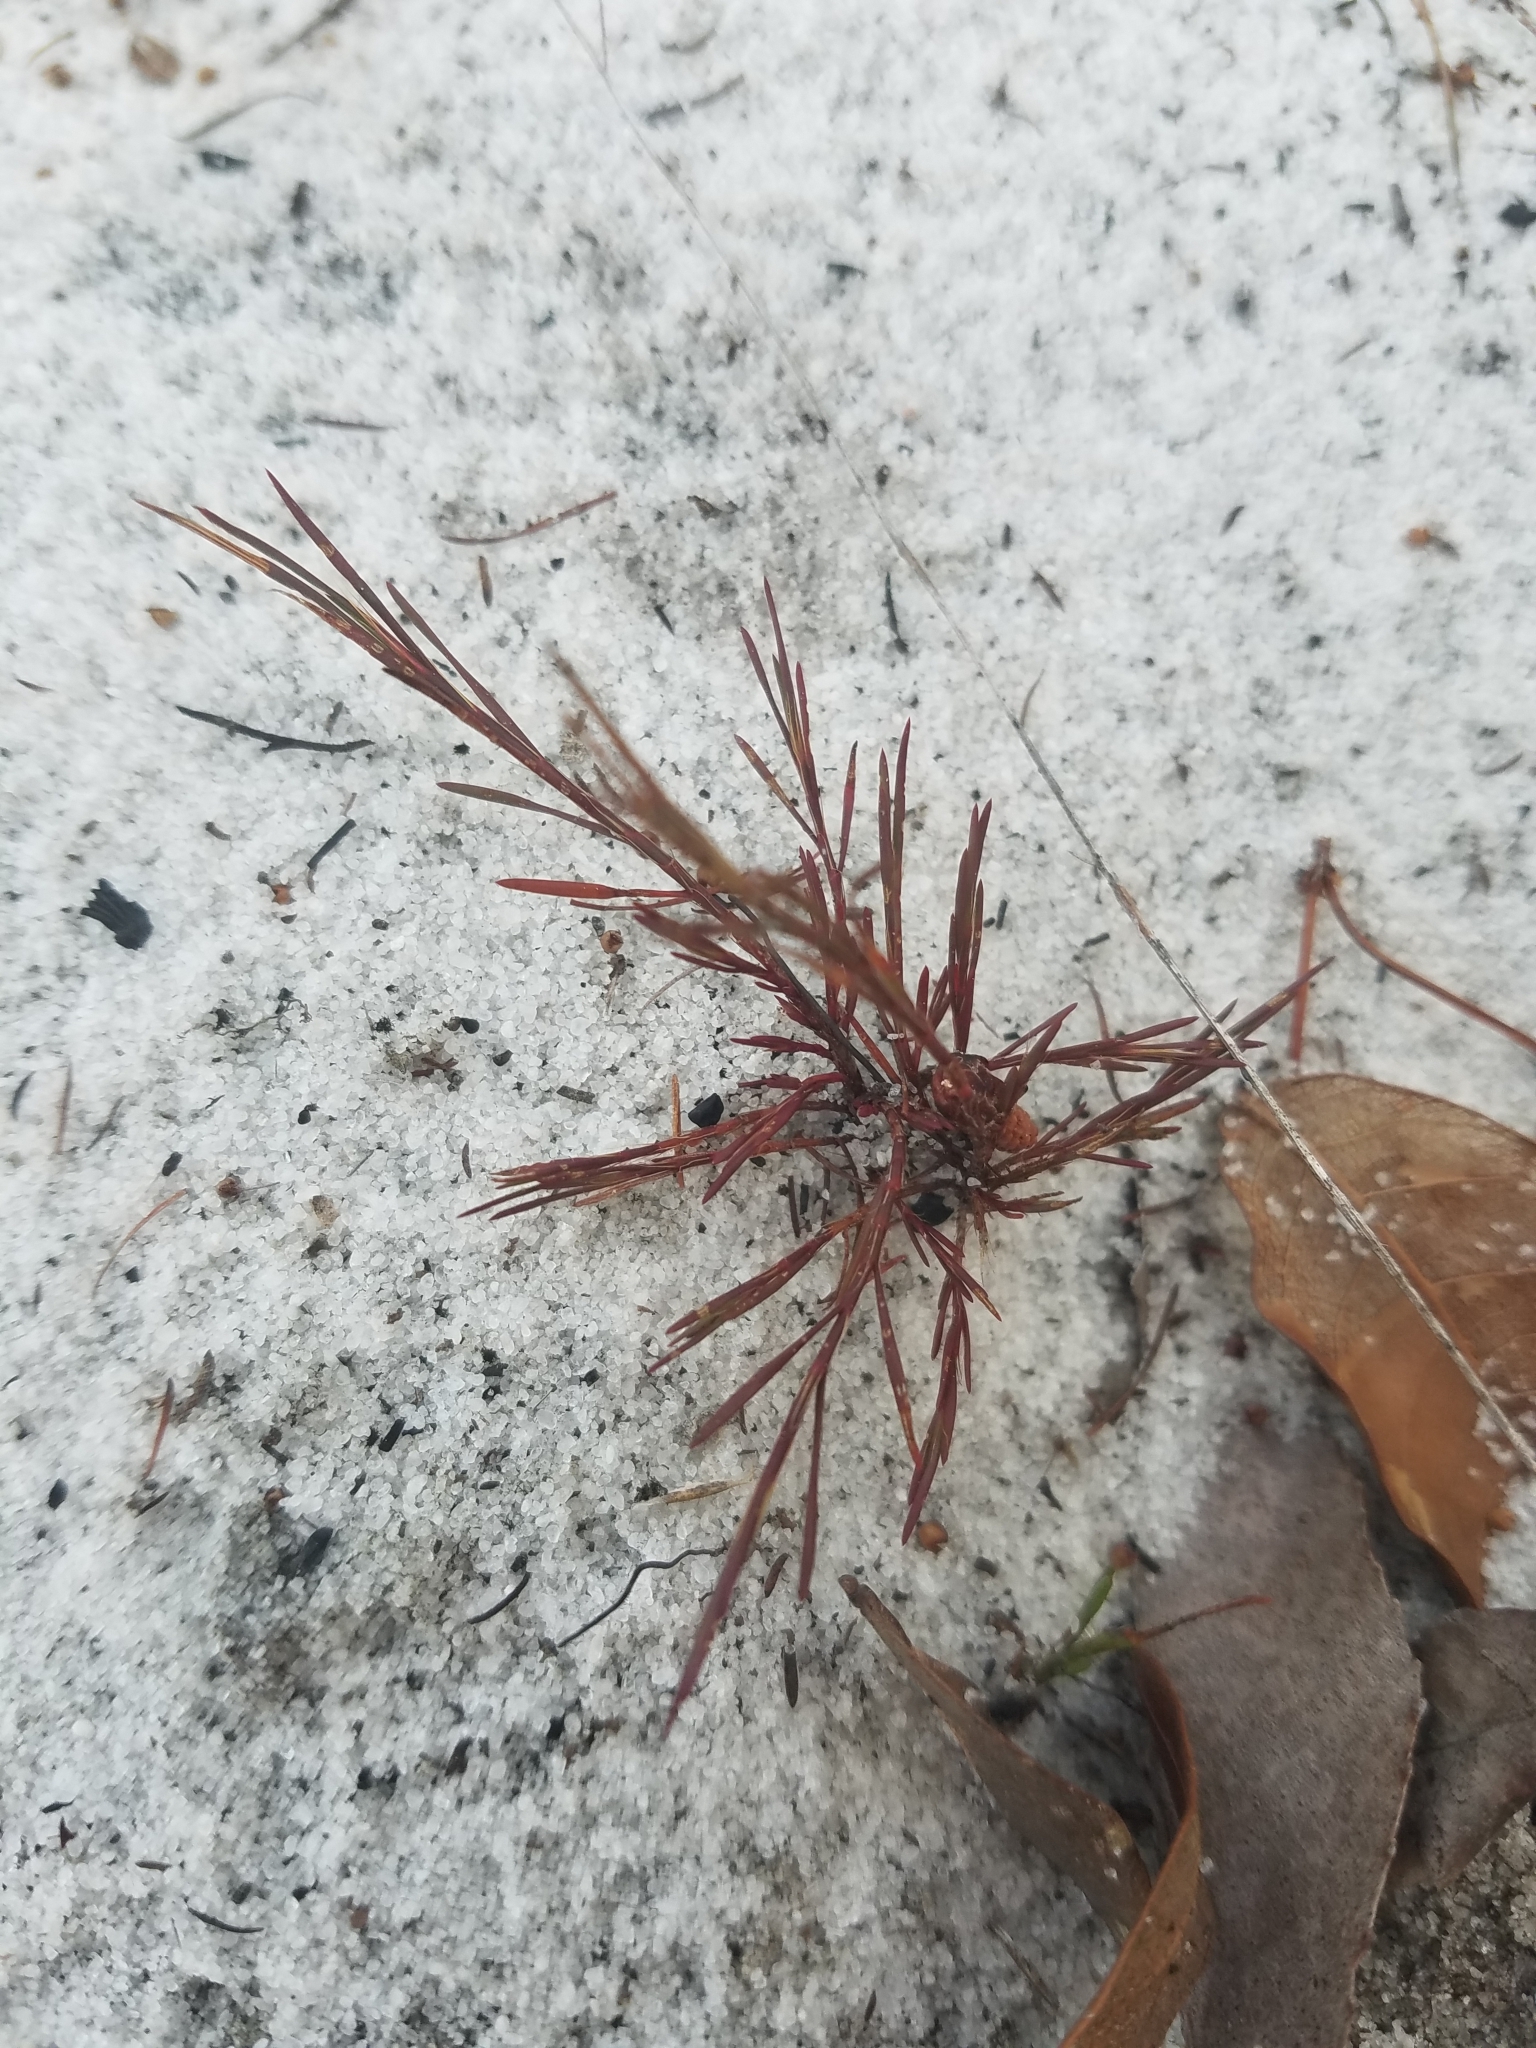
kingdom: Plantae
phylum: Tracheophyta
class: Magnoliopsida
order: Caryophyllales
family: Polygonaceae
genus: Polygonella
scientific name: Polygonella basiramia
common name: Hairy wireweed
